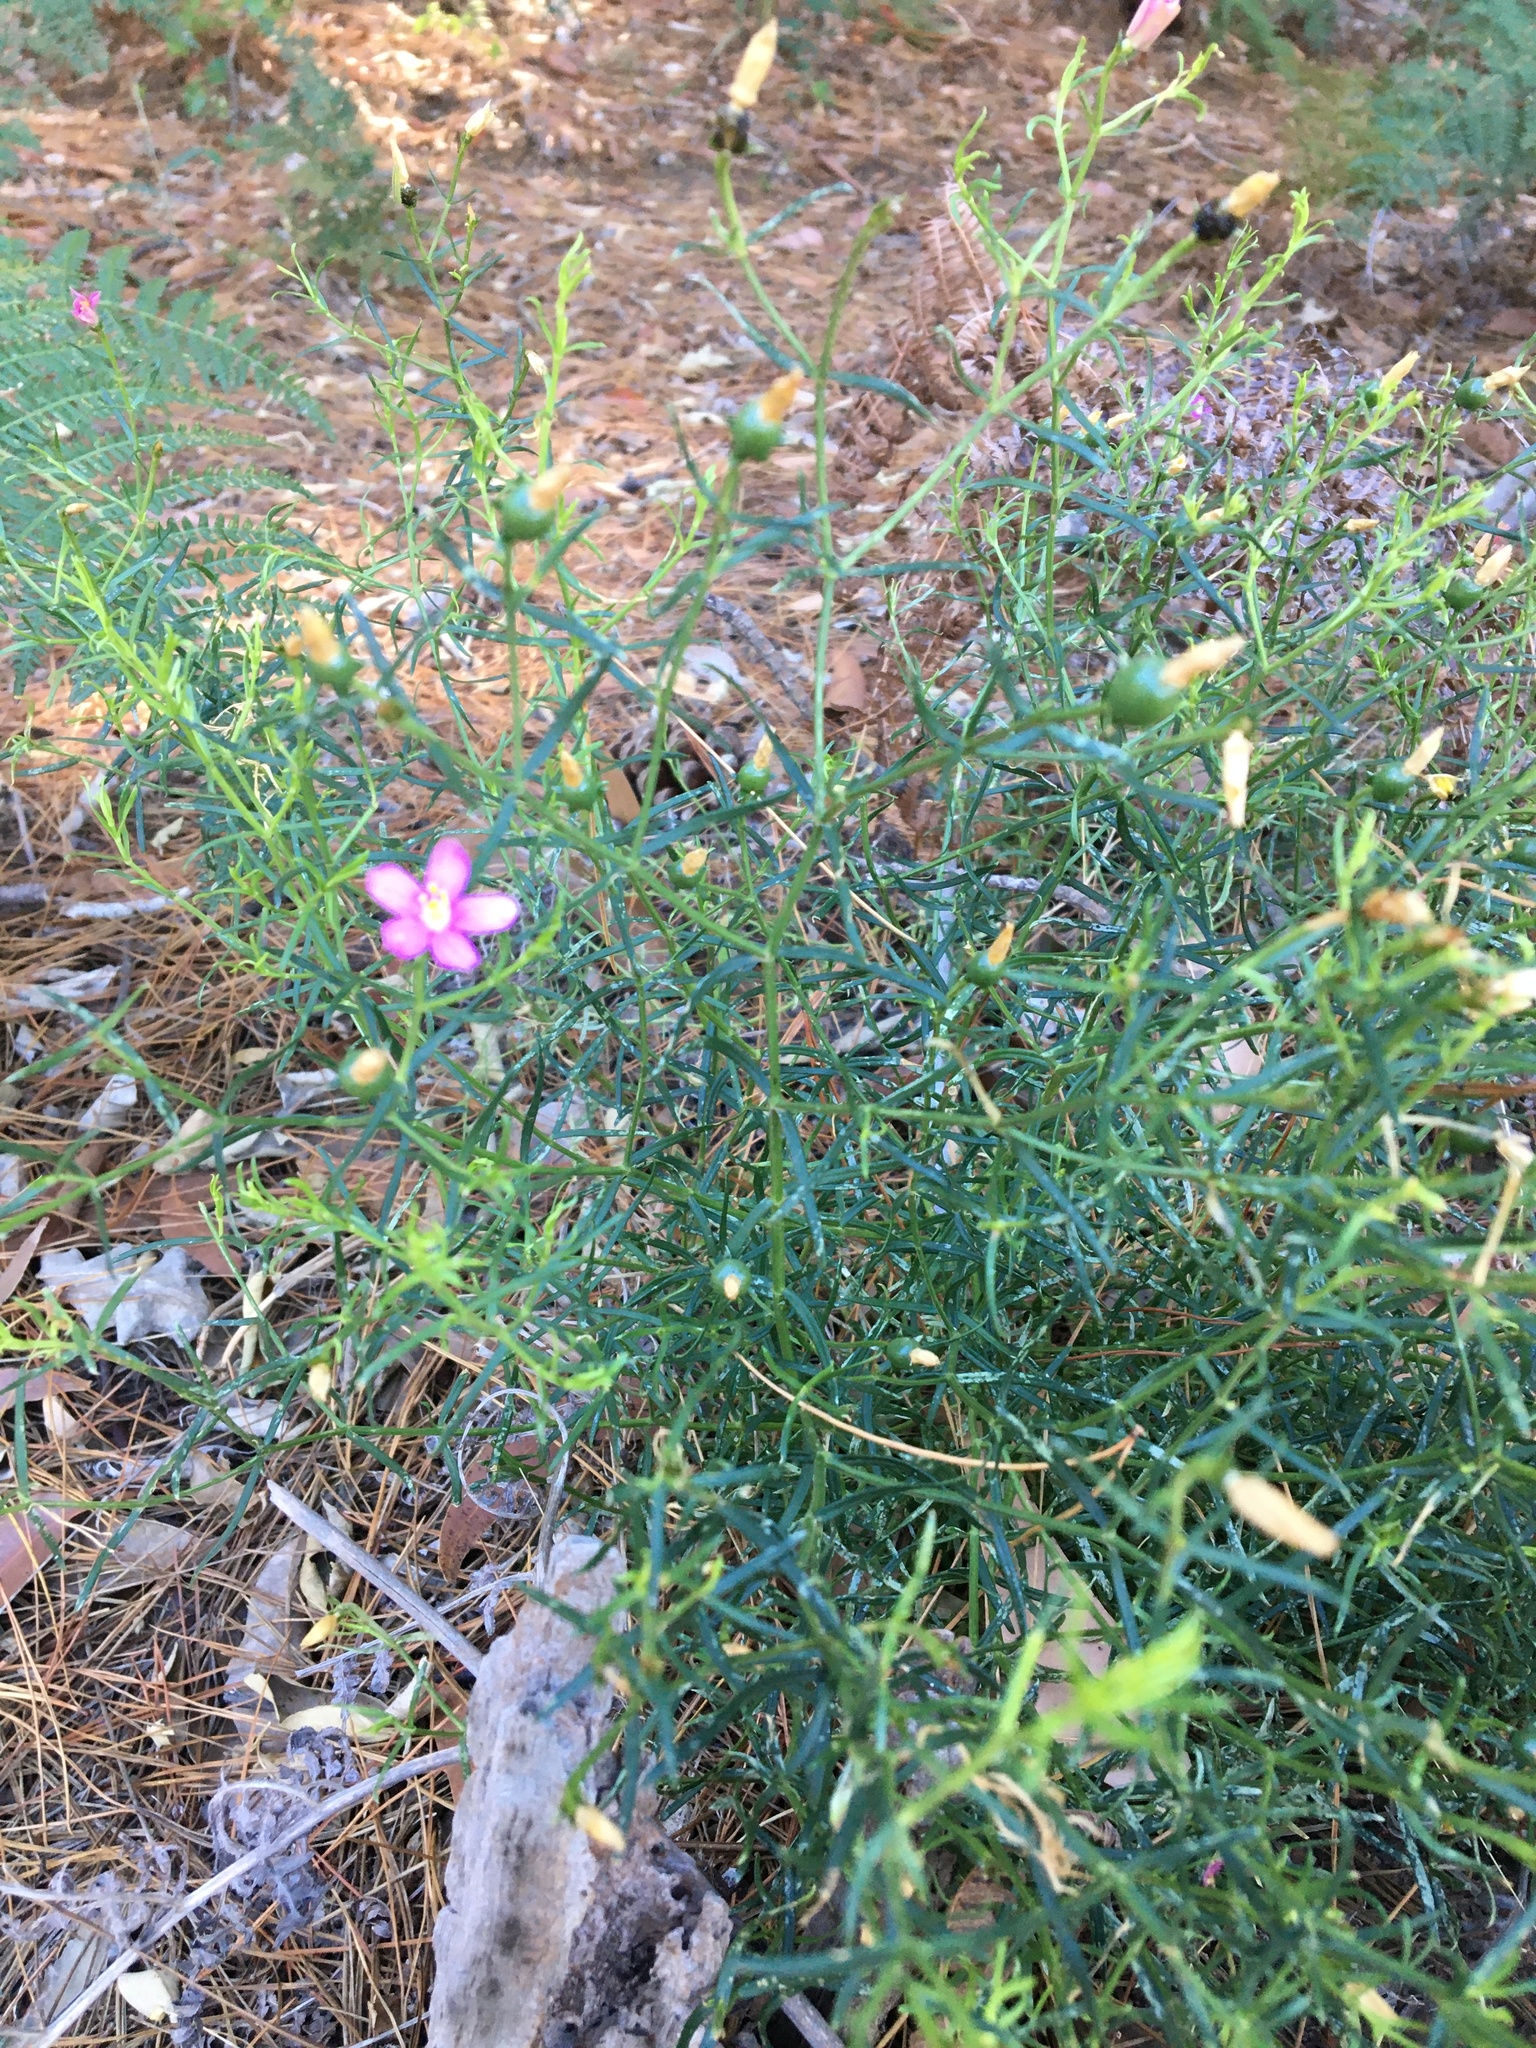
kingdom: Plantae
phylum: Tracheophyta
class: Magnoliopsida
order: Gentianales
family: Gentianaceae
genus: Chironia
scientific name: Chironia baccifera
